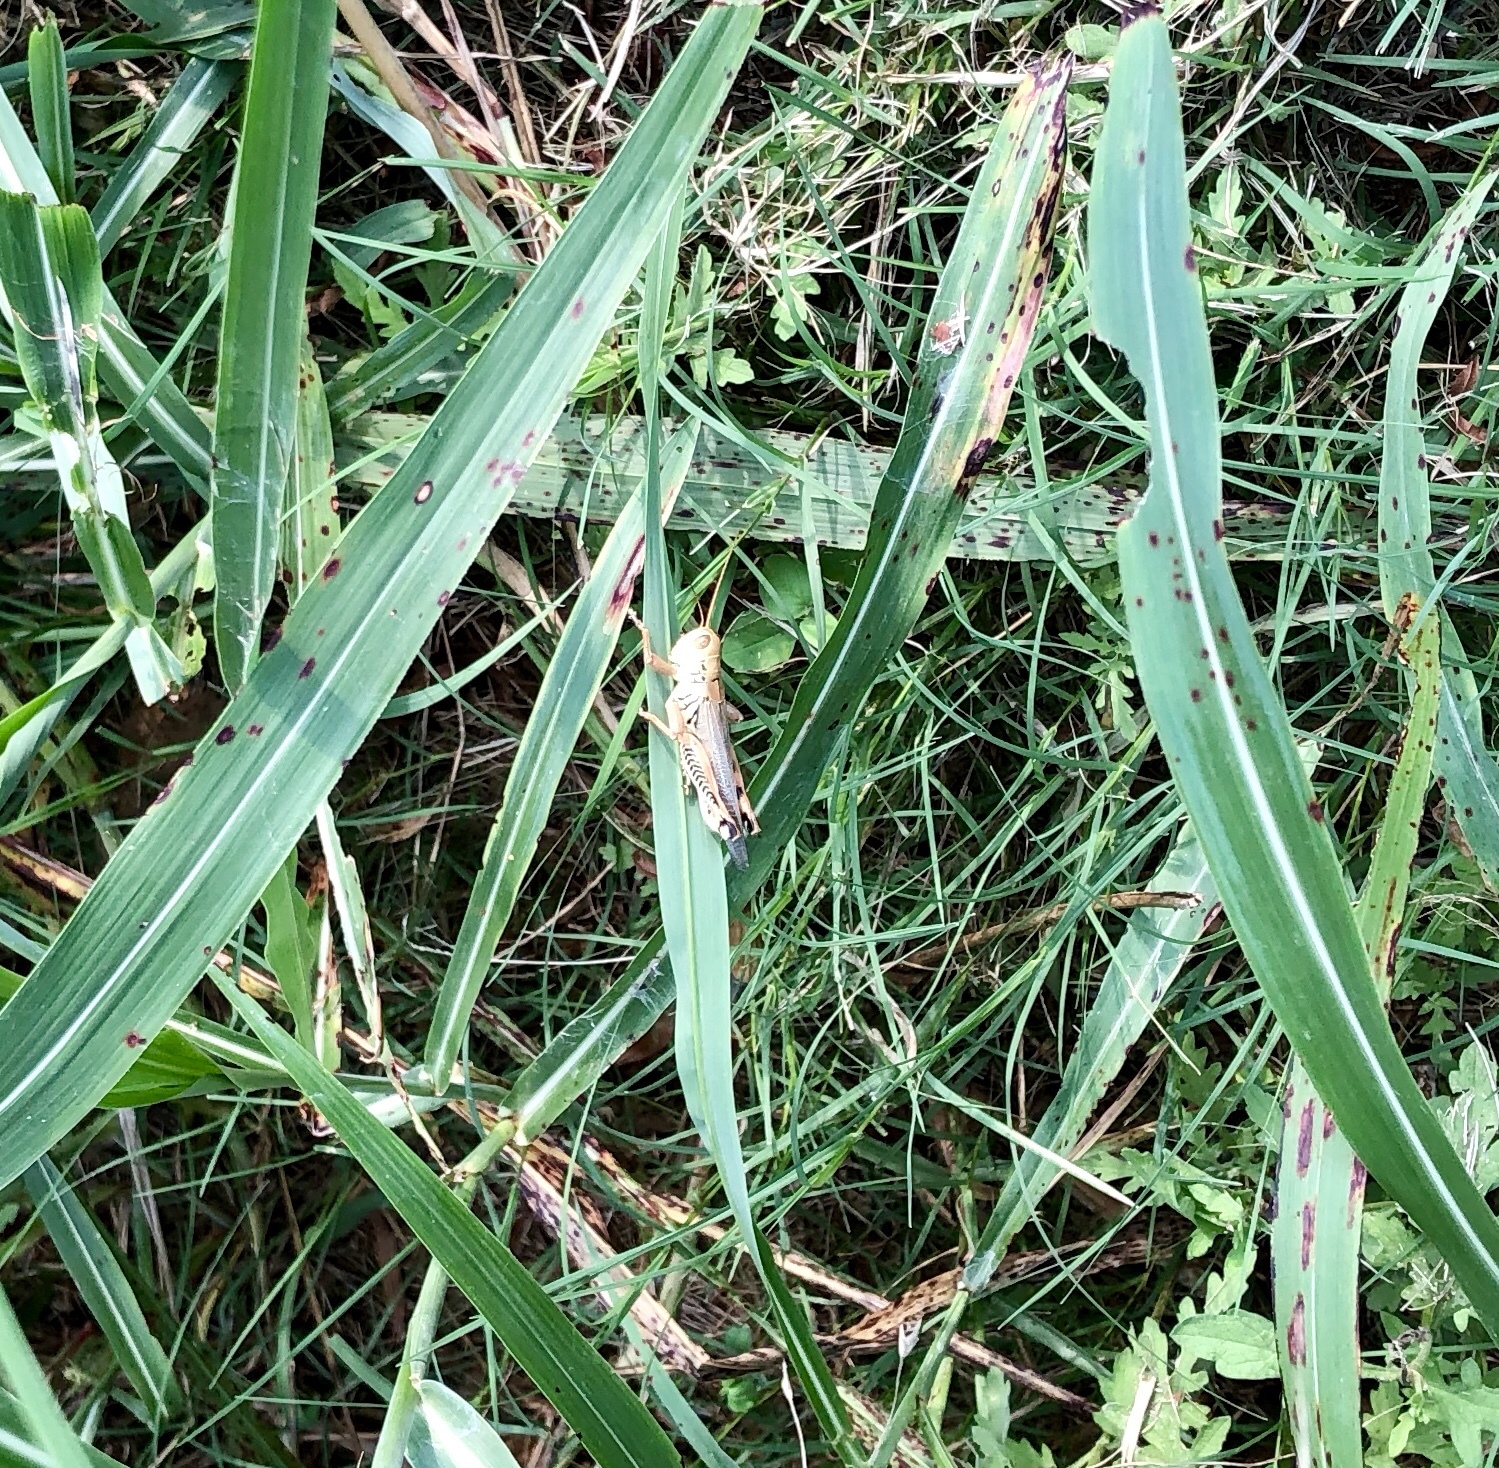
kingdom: Animalia
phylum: Arthropoda
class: Insecta
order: Orthoptera
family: Acrididae
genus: Melanoplus
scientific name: Melanoplus differentialis
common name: Differential grasshopper
